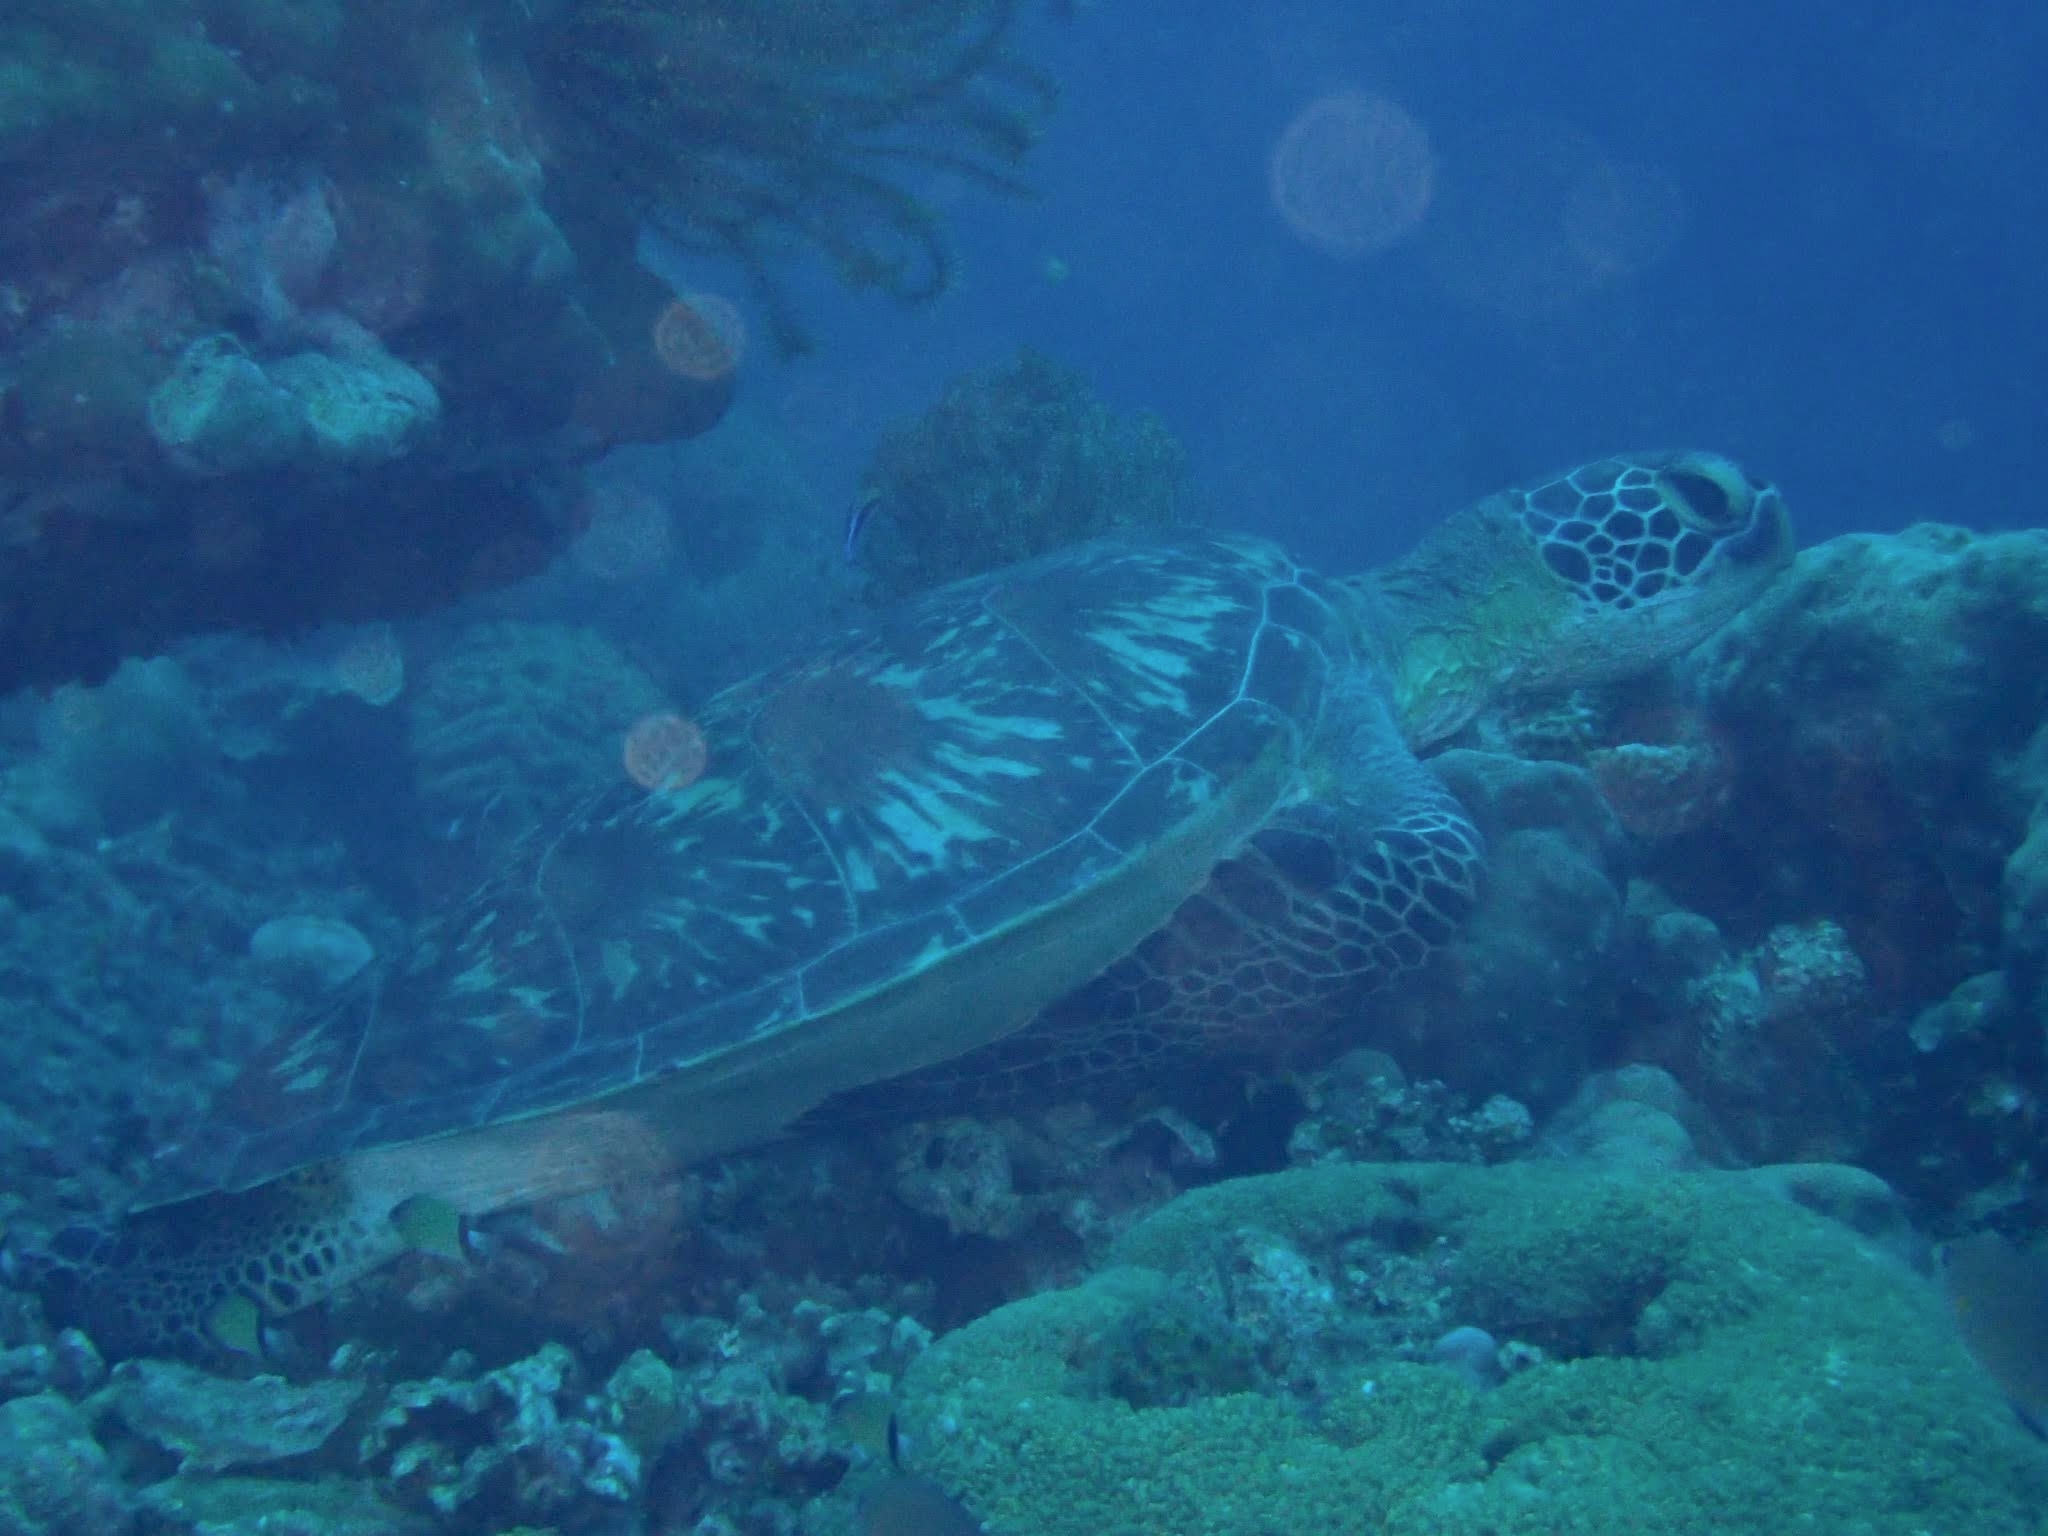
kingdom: Animalia
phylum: Chordata
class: Testudines
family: Cheloniidae
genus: Chelonia
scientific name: Chelonia mydas
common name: Green turtle
